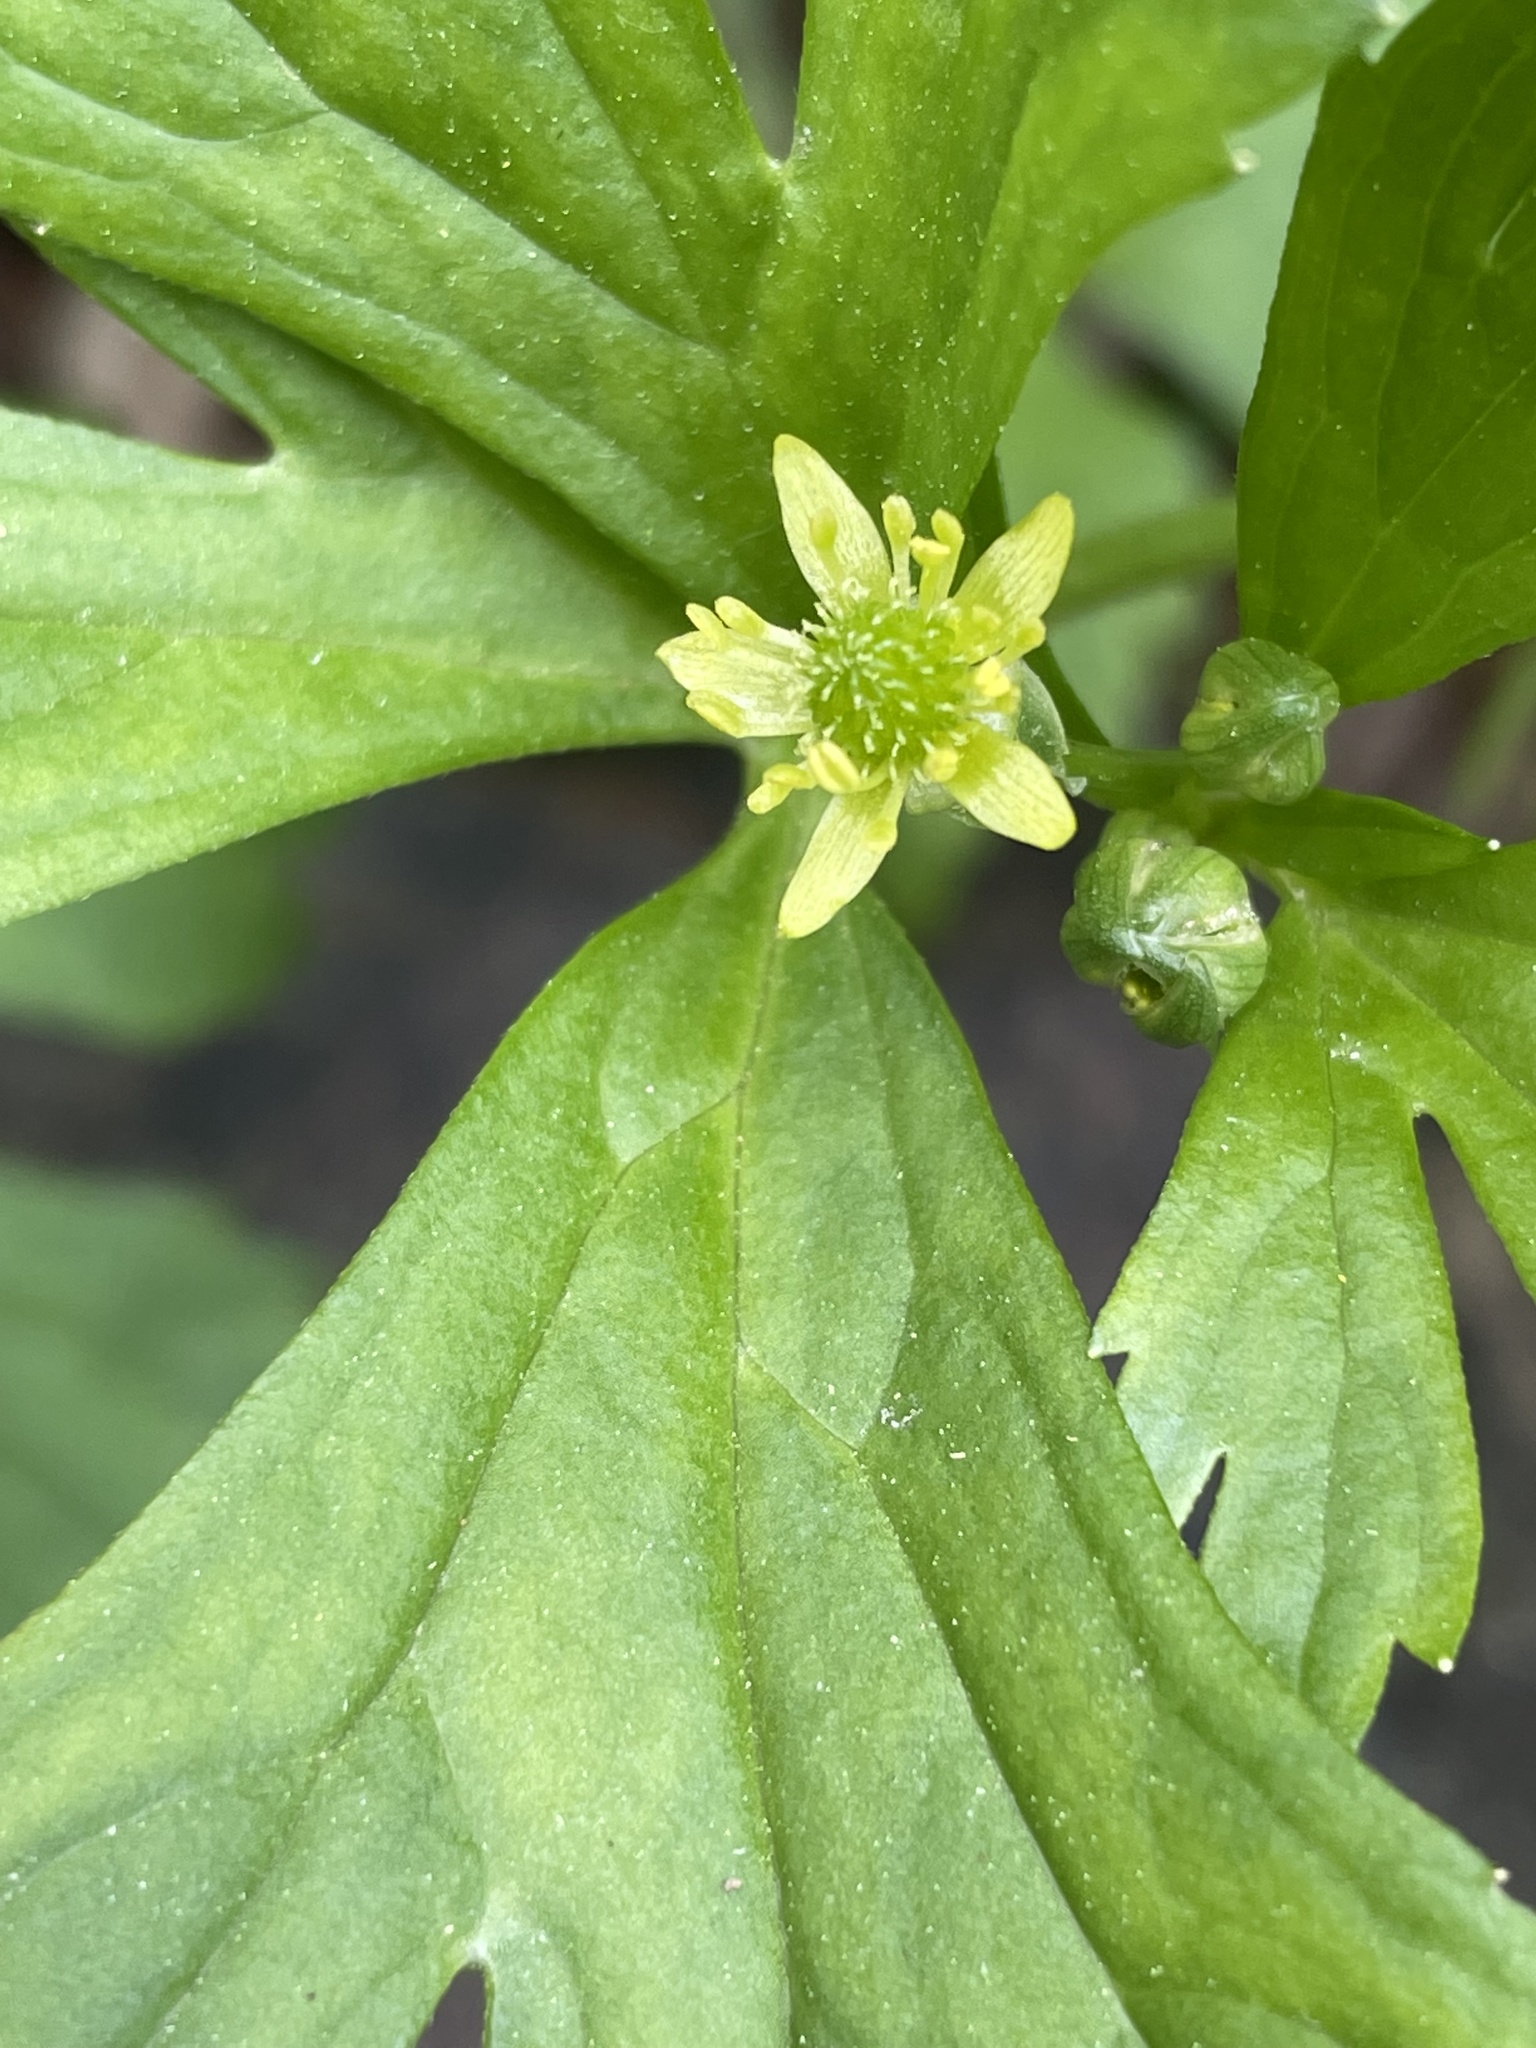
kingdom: Plantae
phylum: Tracheophyta
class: Magnoliopsida
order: Ranunculales
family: Ranunculaceae
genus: Ranunculus
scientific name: Ranunculus recurvatus
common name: Blisterwort
